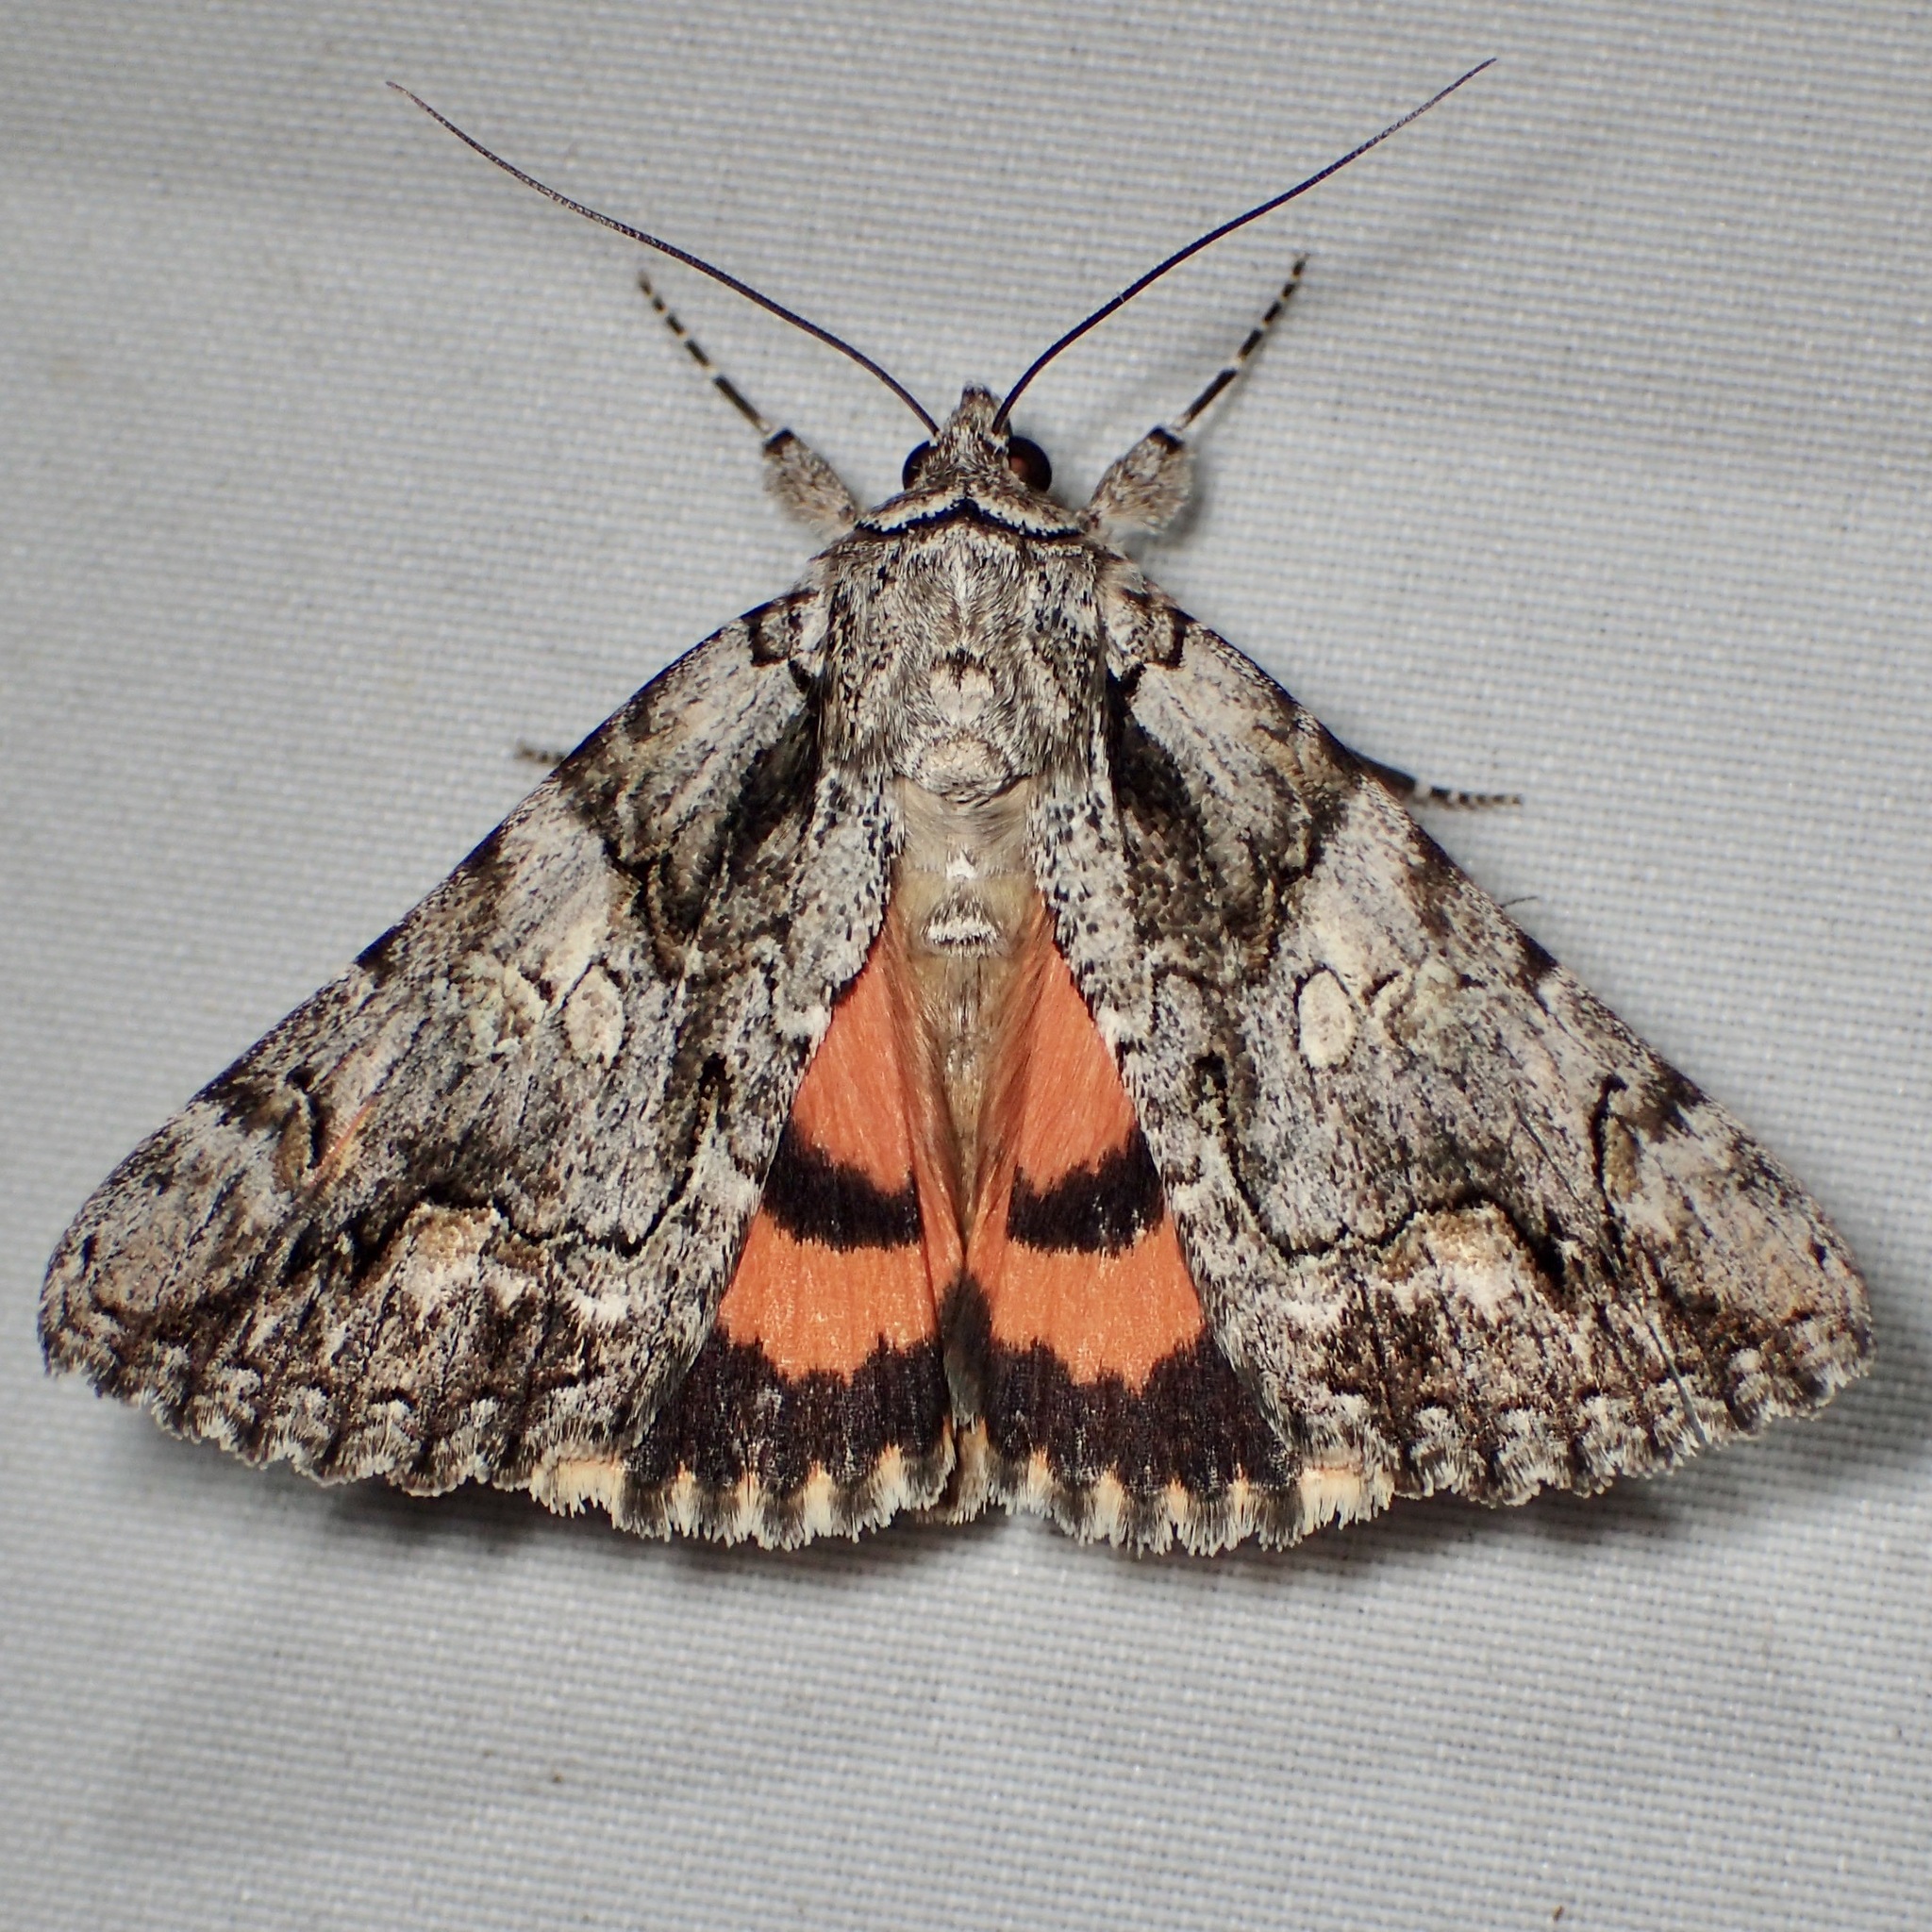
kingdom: Animalia
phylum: Arthropoda
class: Insecta
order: Lepidoptera
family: Erebidae
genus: Catocala
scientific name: Catocala verrilliana
